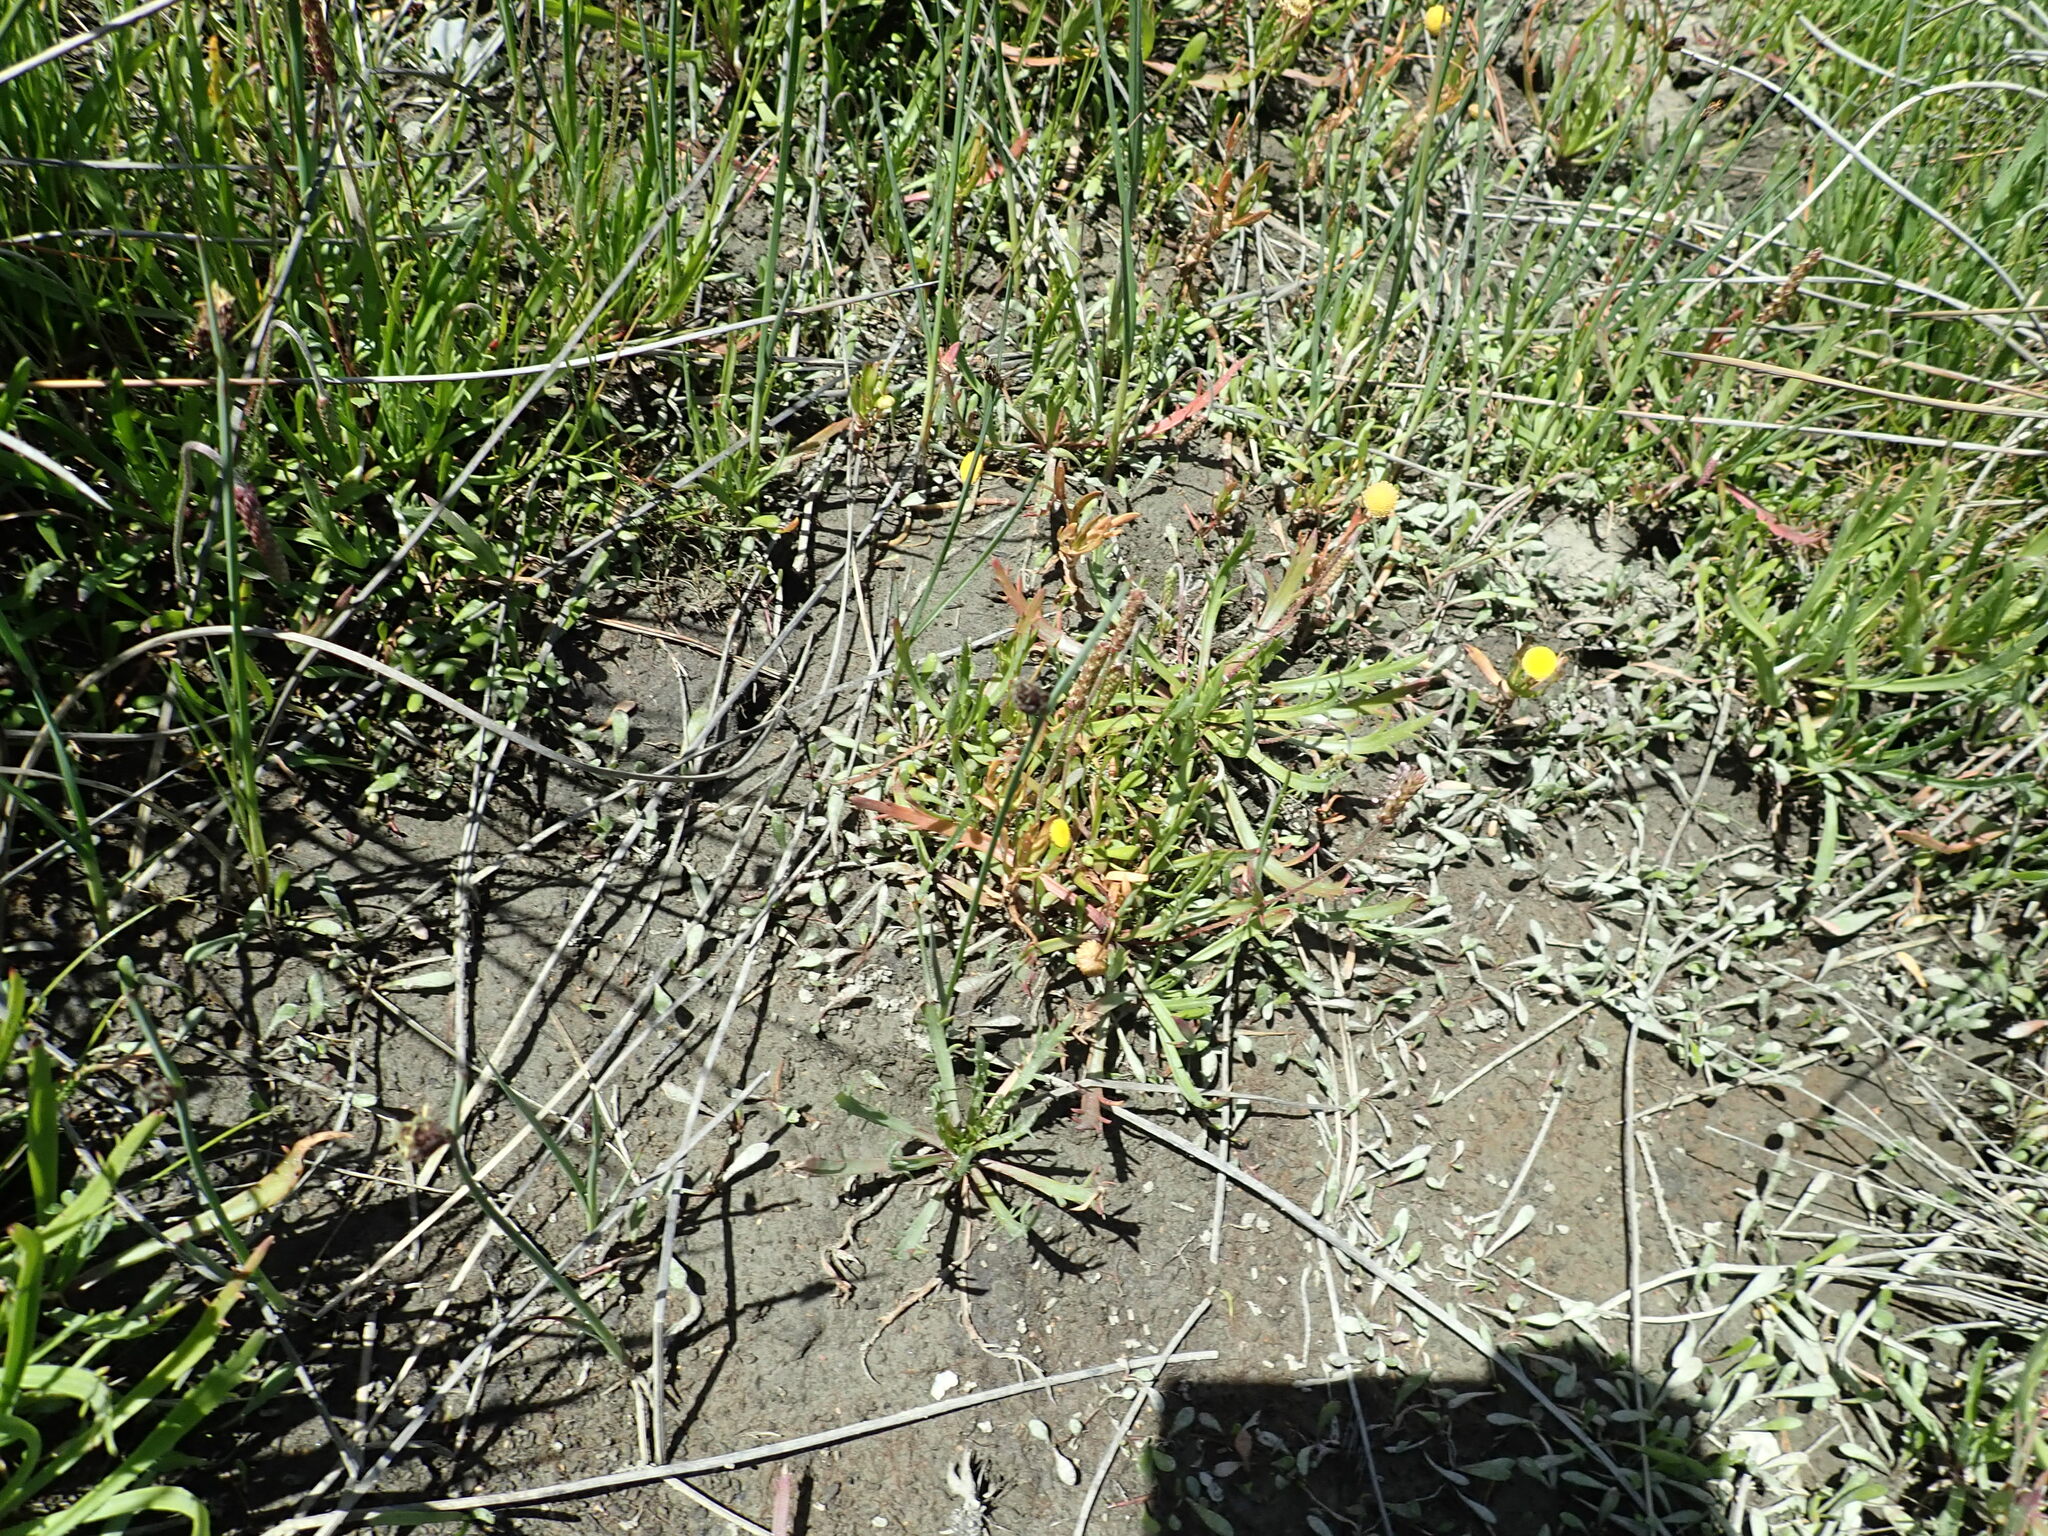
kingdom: Plantae
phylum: Tracheophyta
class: Magnoliopsida
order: Asterales
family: Asteraceae
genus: Cotula
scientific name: Cotula coronopifolia
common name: Buttonweed
